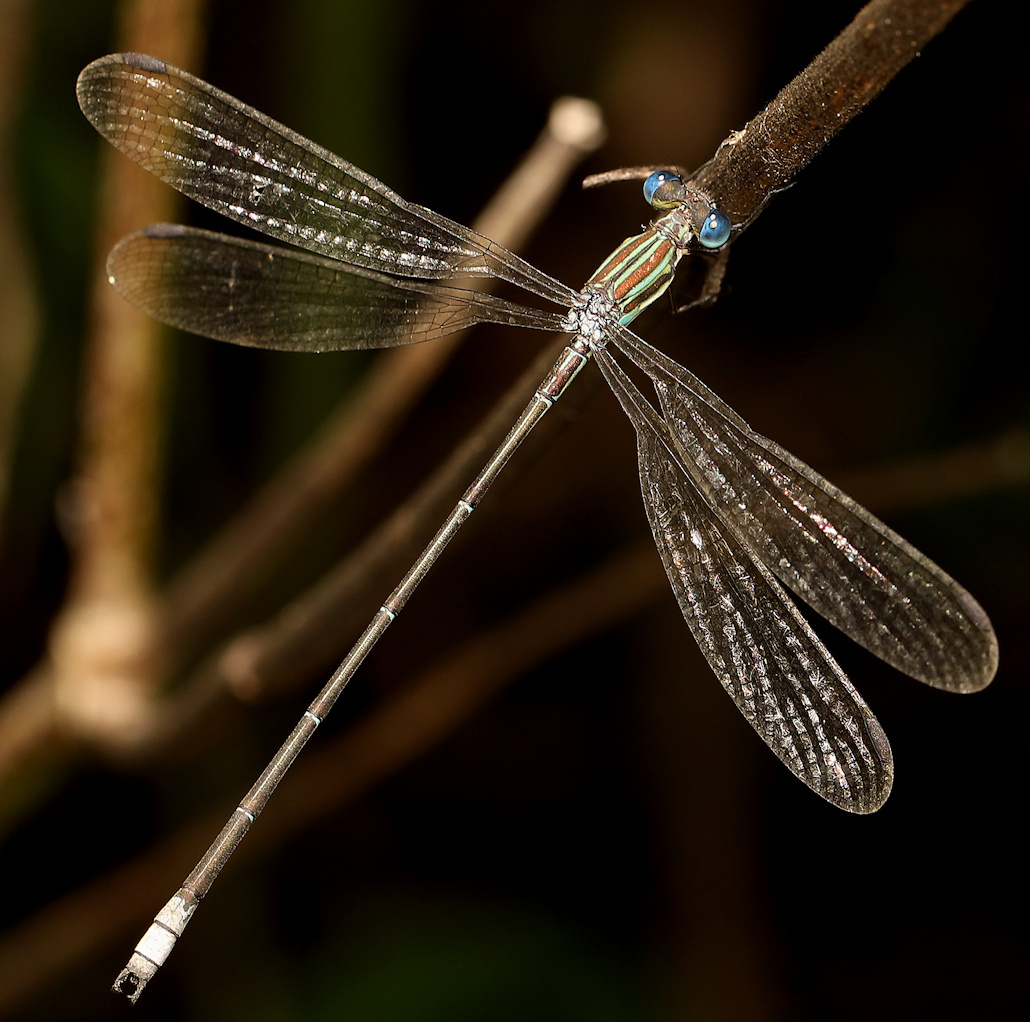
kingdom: Animalia
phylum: Arthropoda
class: Insecta
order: Odonata
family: Lestidae
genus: Lestes
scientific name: Lestes virgatus
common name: Smoky spreadwing
